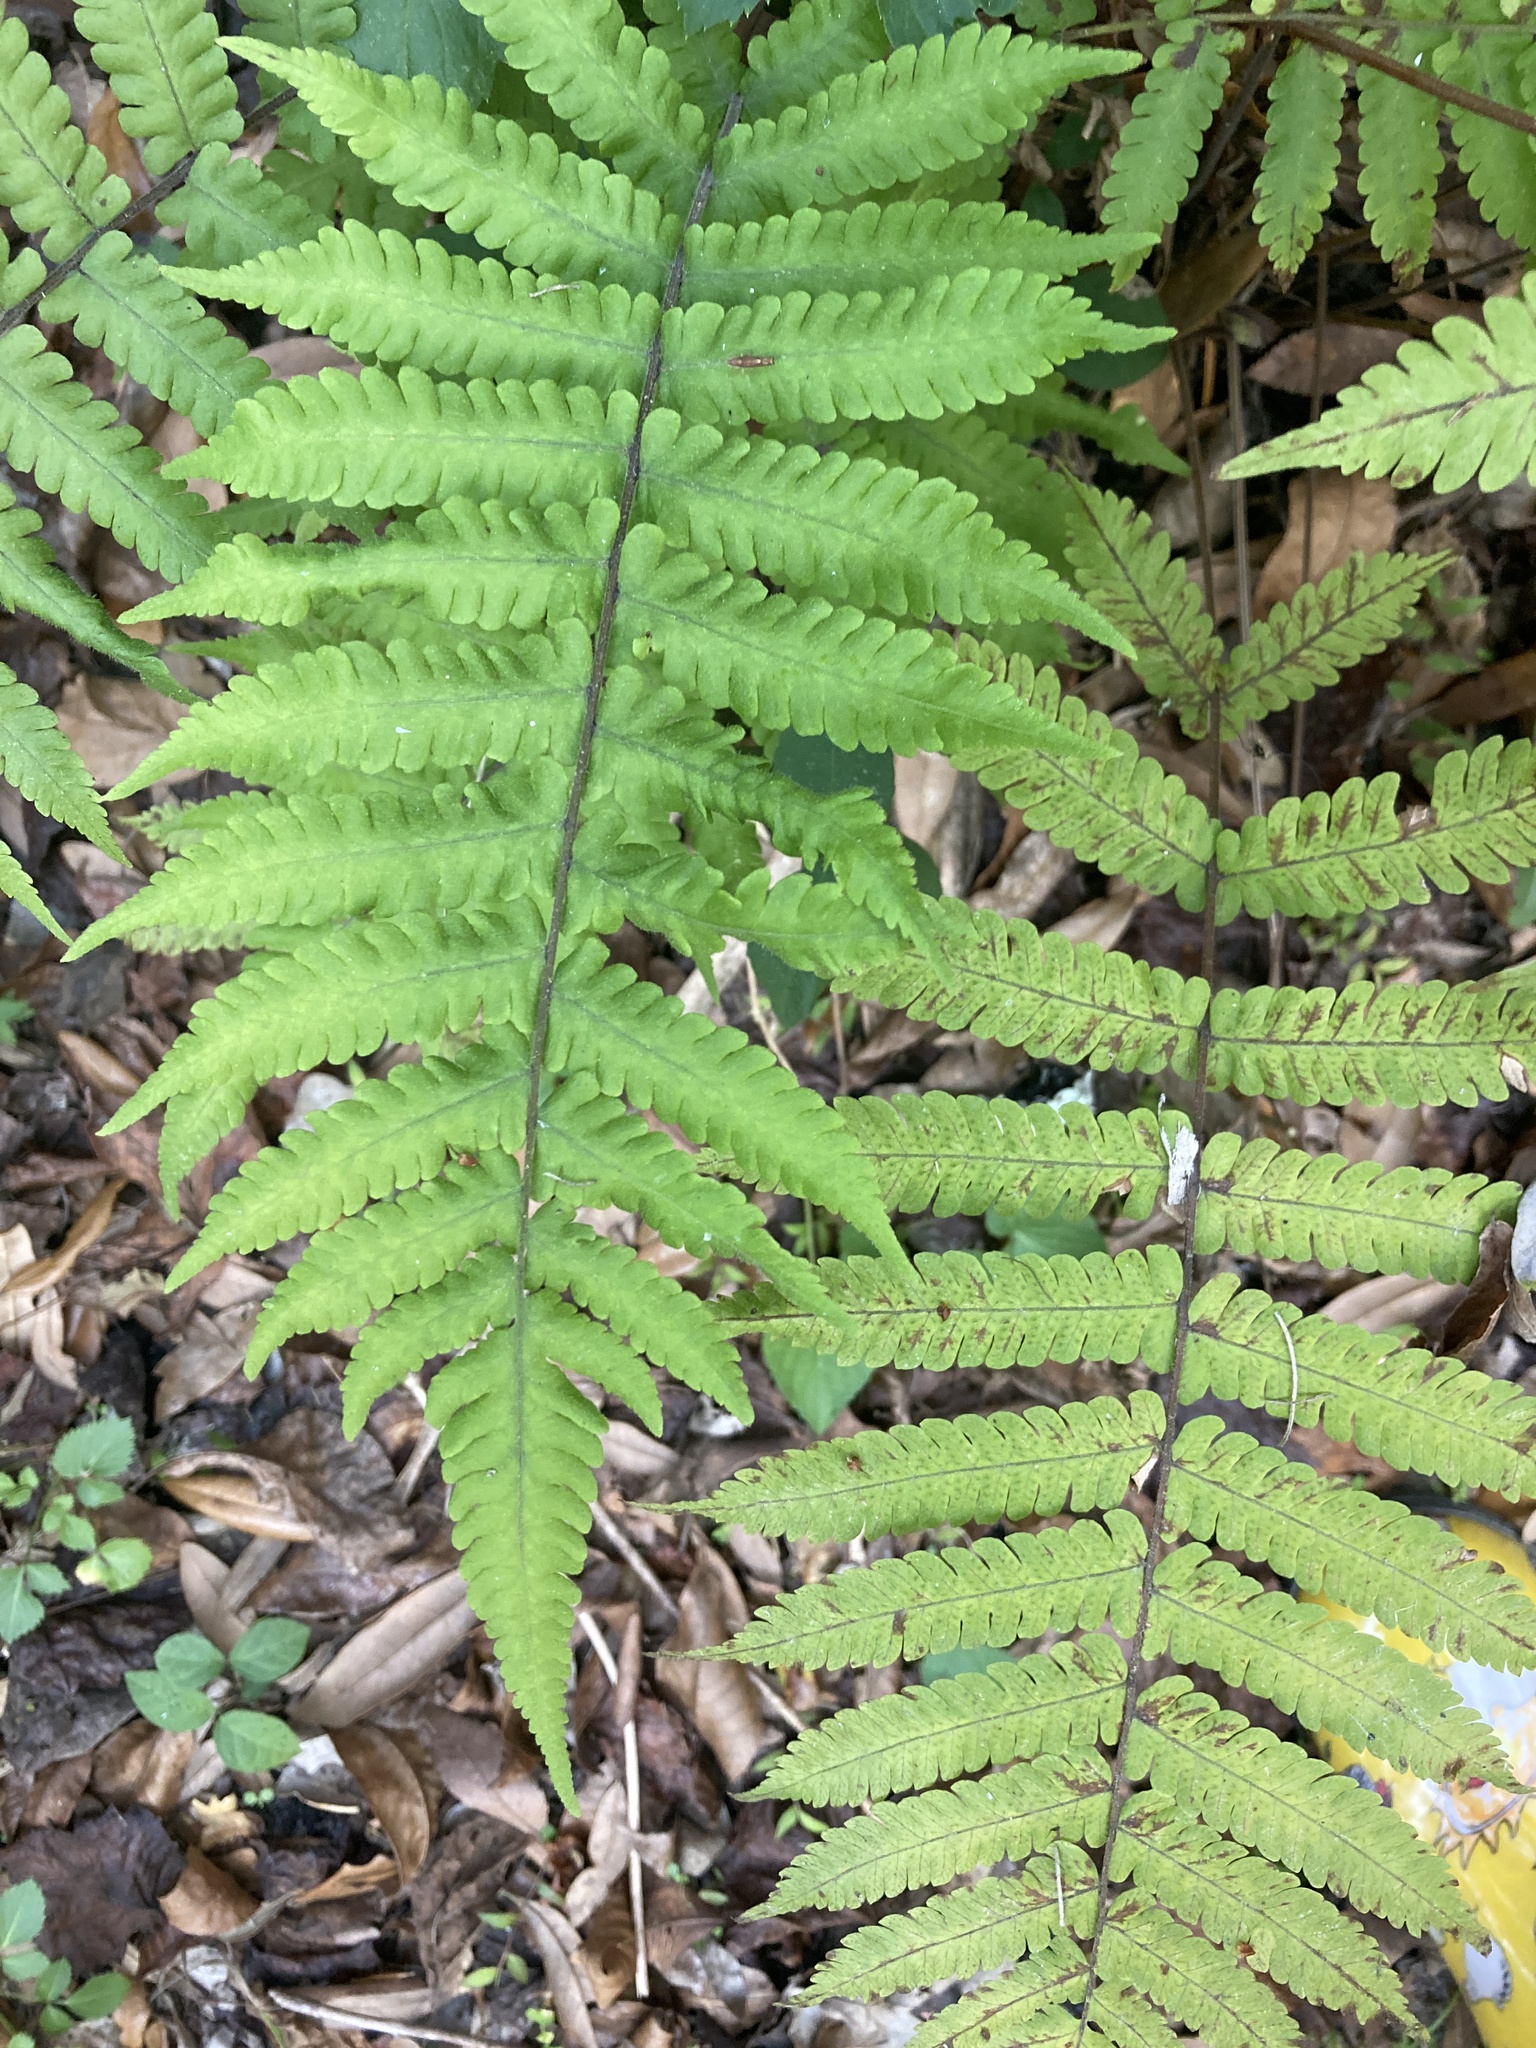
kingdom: Plantae
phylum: Tracheophyta
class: Polypodiopsida
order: Polypodiales
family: Thelypteridaceae
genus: Christella
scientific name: Christella dentata
